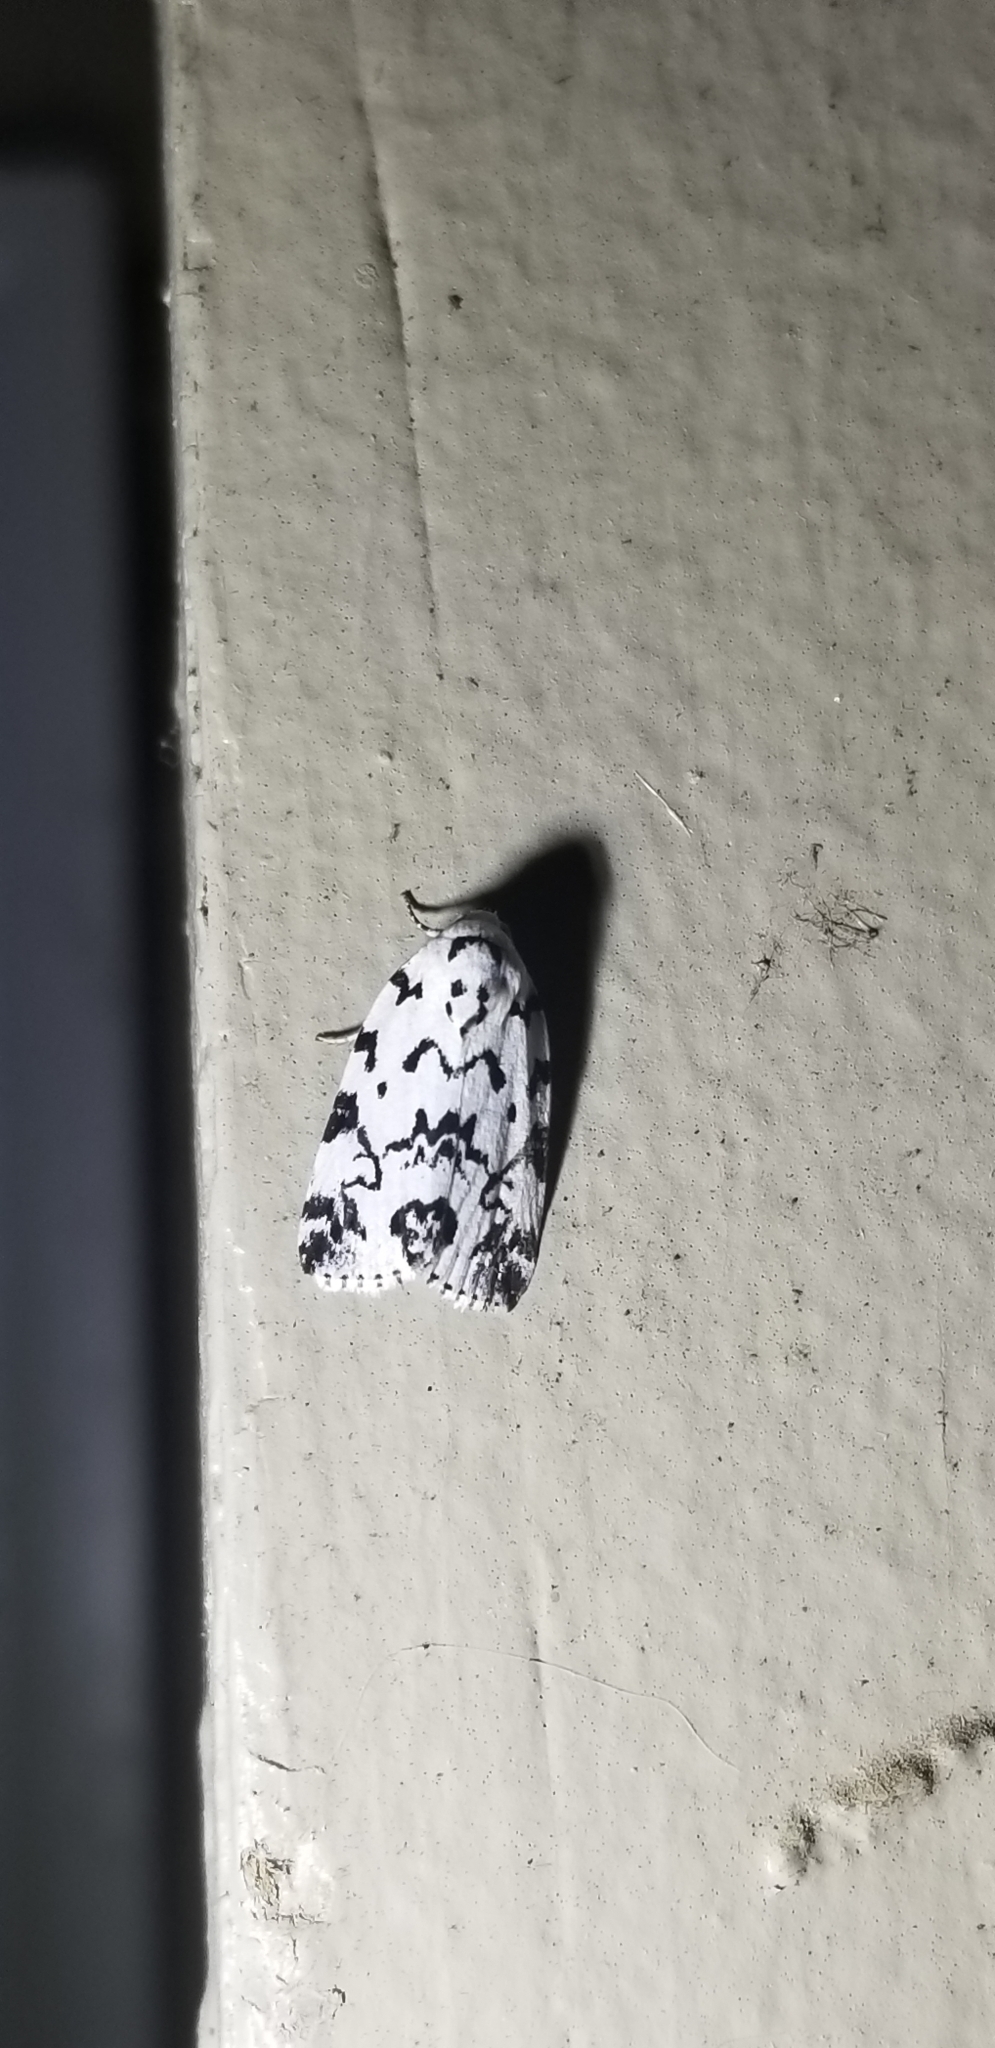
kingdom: Animalia
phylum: Arthropoda
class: Insecta
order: Lepidoptera
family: Noctuidae
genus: Polygrammate
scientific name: Polygrammate hebraeicum
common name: Hebrew moth
